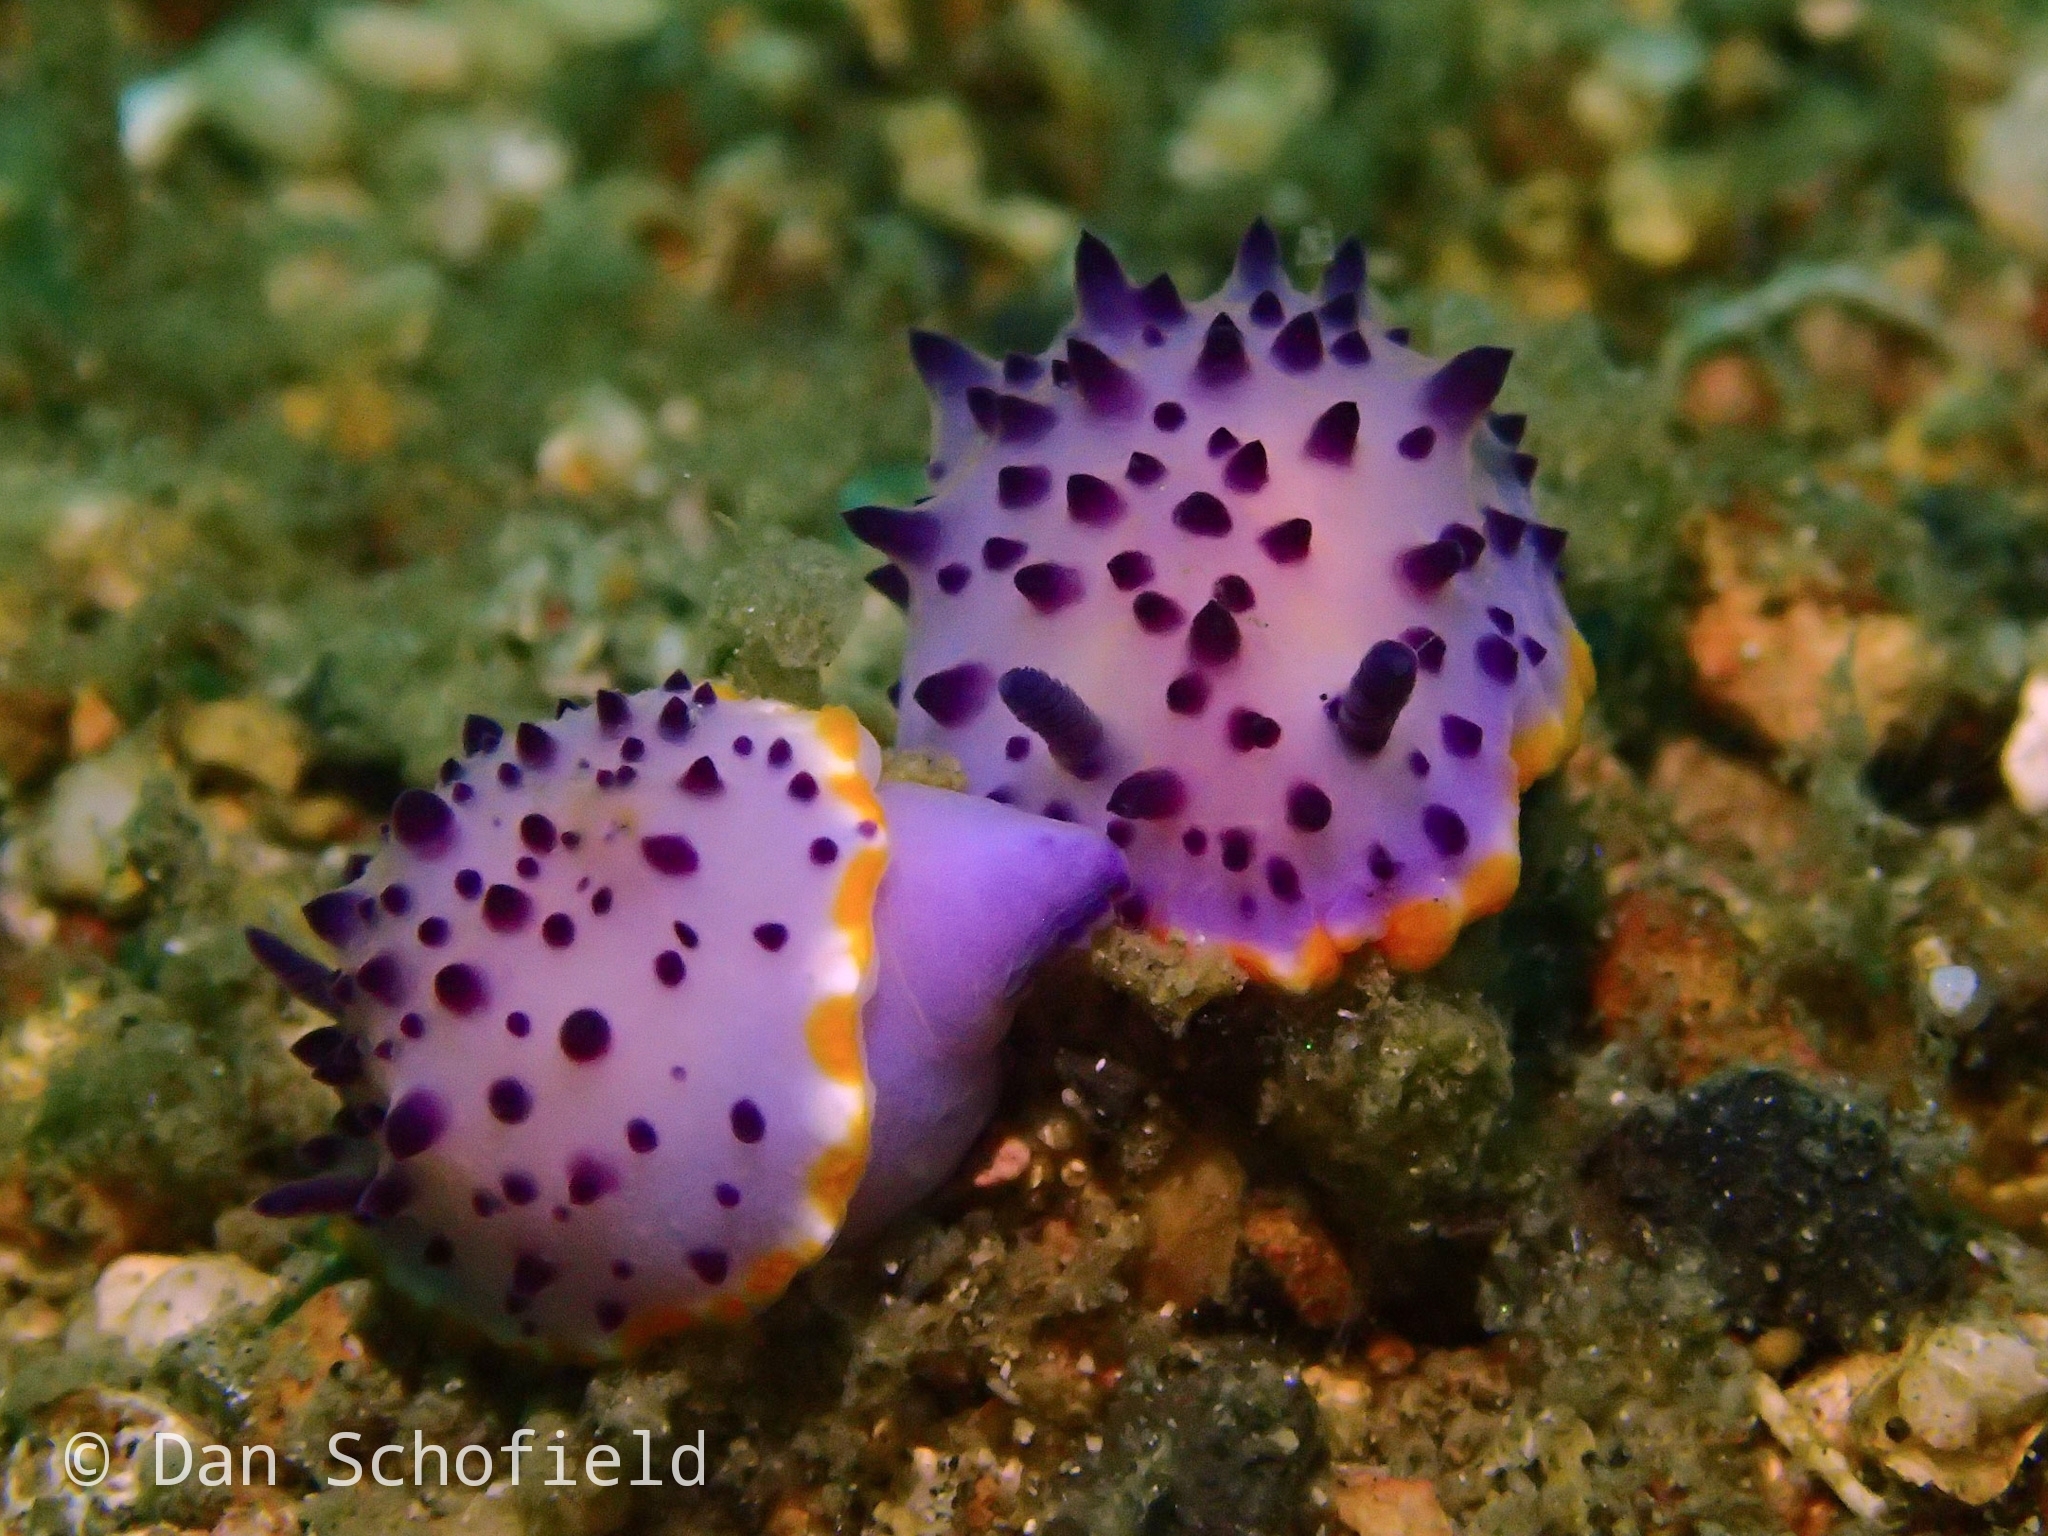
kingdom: Animalia
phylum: Mollusca
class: Gastropoda
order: Nudibranchia
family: Chromodorididae
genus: Mexichromis
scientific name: Mexichromis mariei
